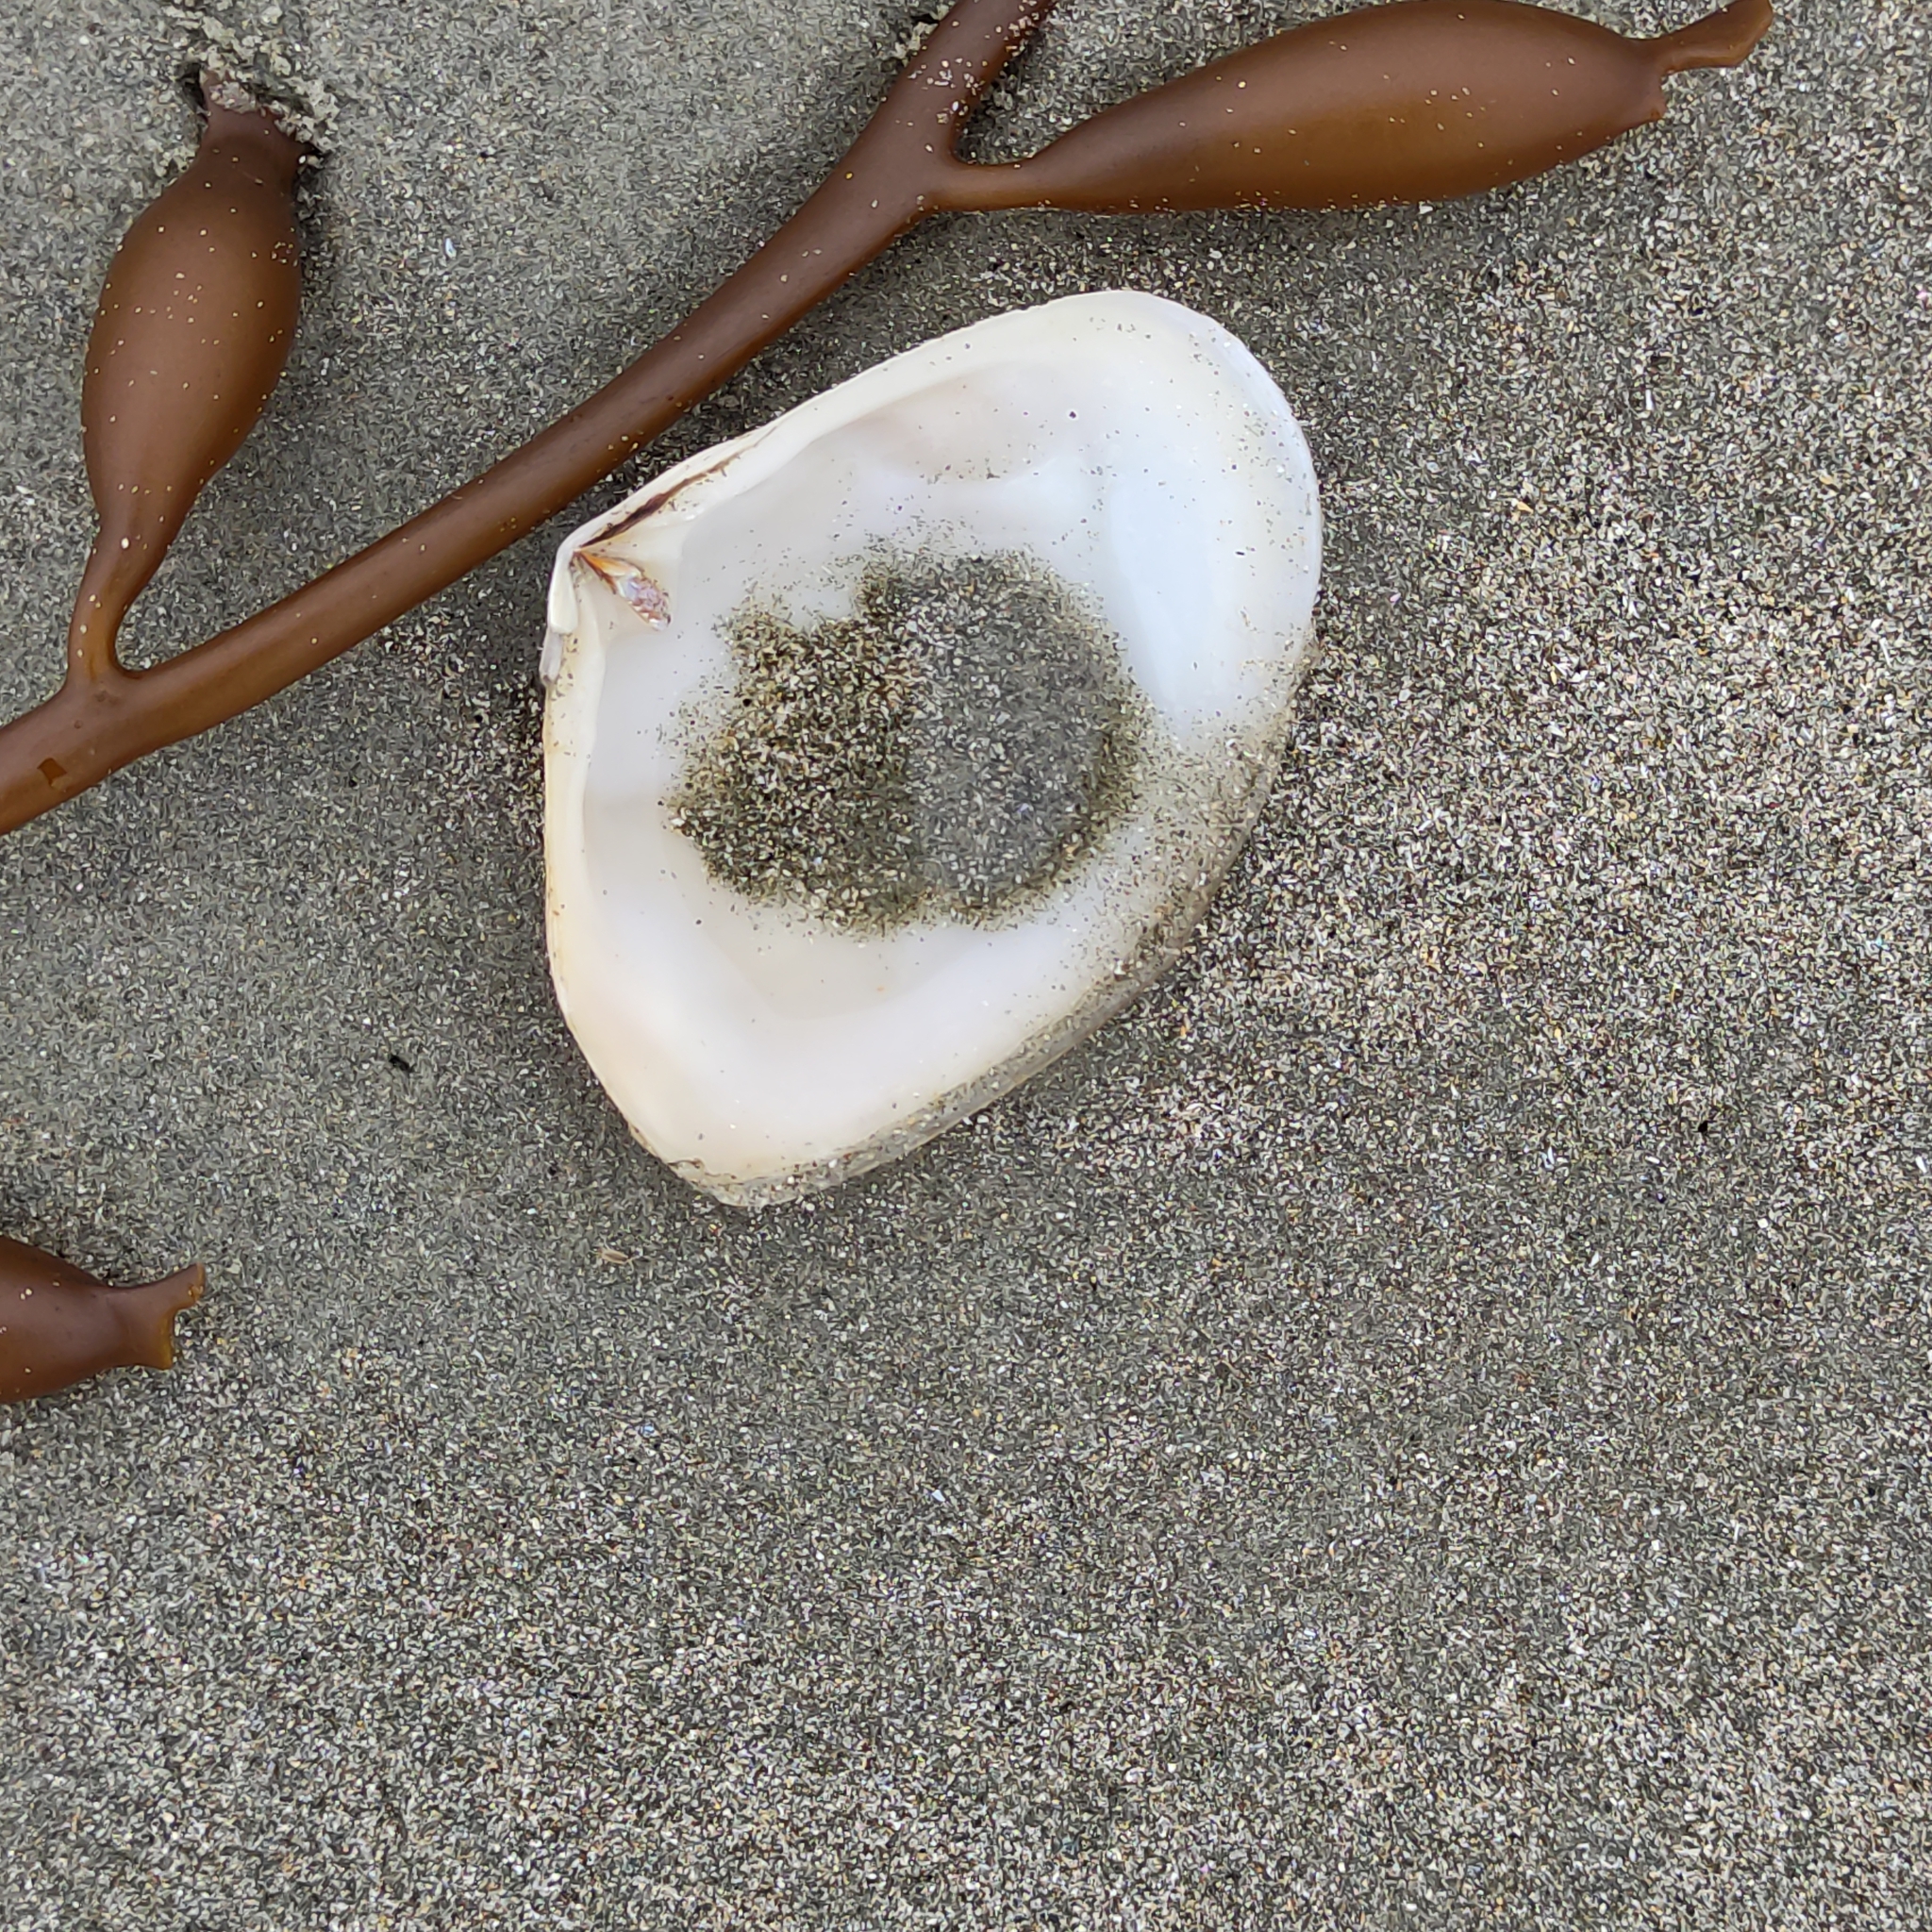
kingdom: Animalia
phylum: Mollusca
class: Bivalvia
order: Venerida
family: Mesodesmatidae
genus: Paphies
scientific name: Paphies donacina
